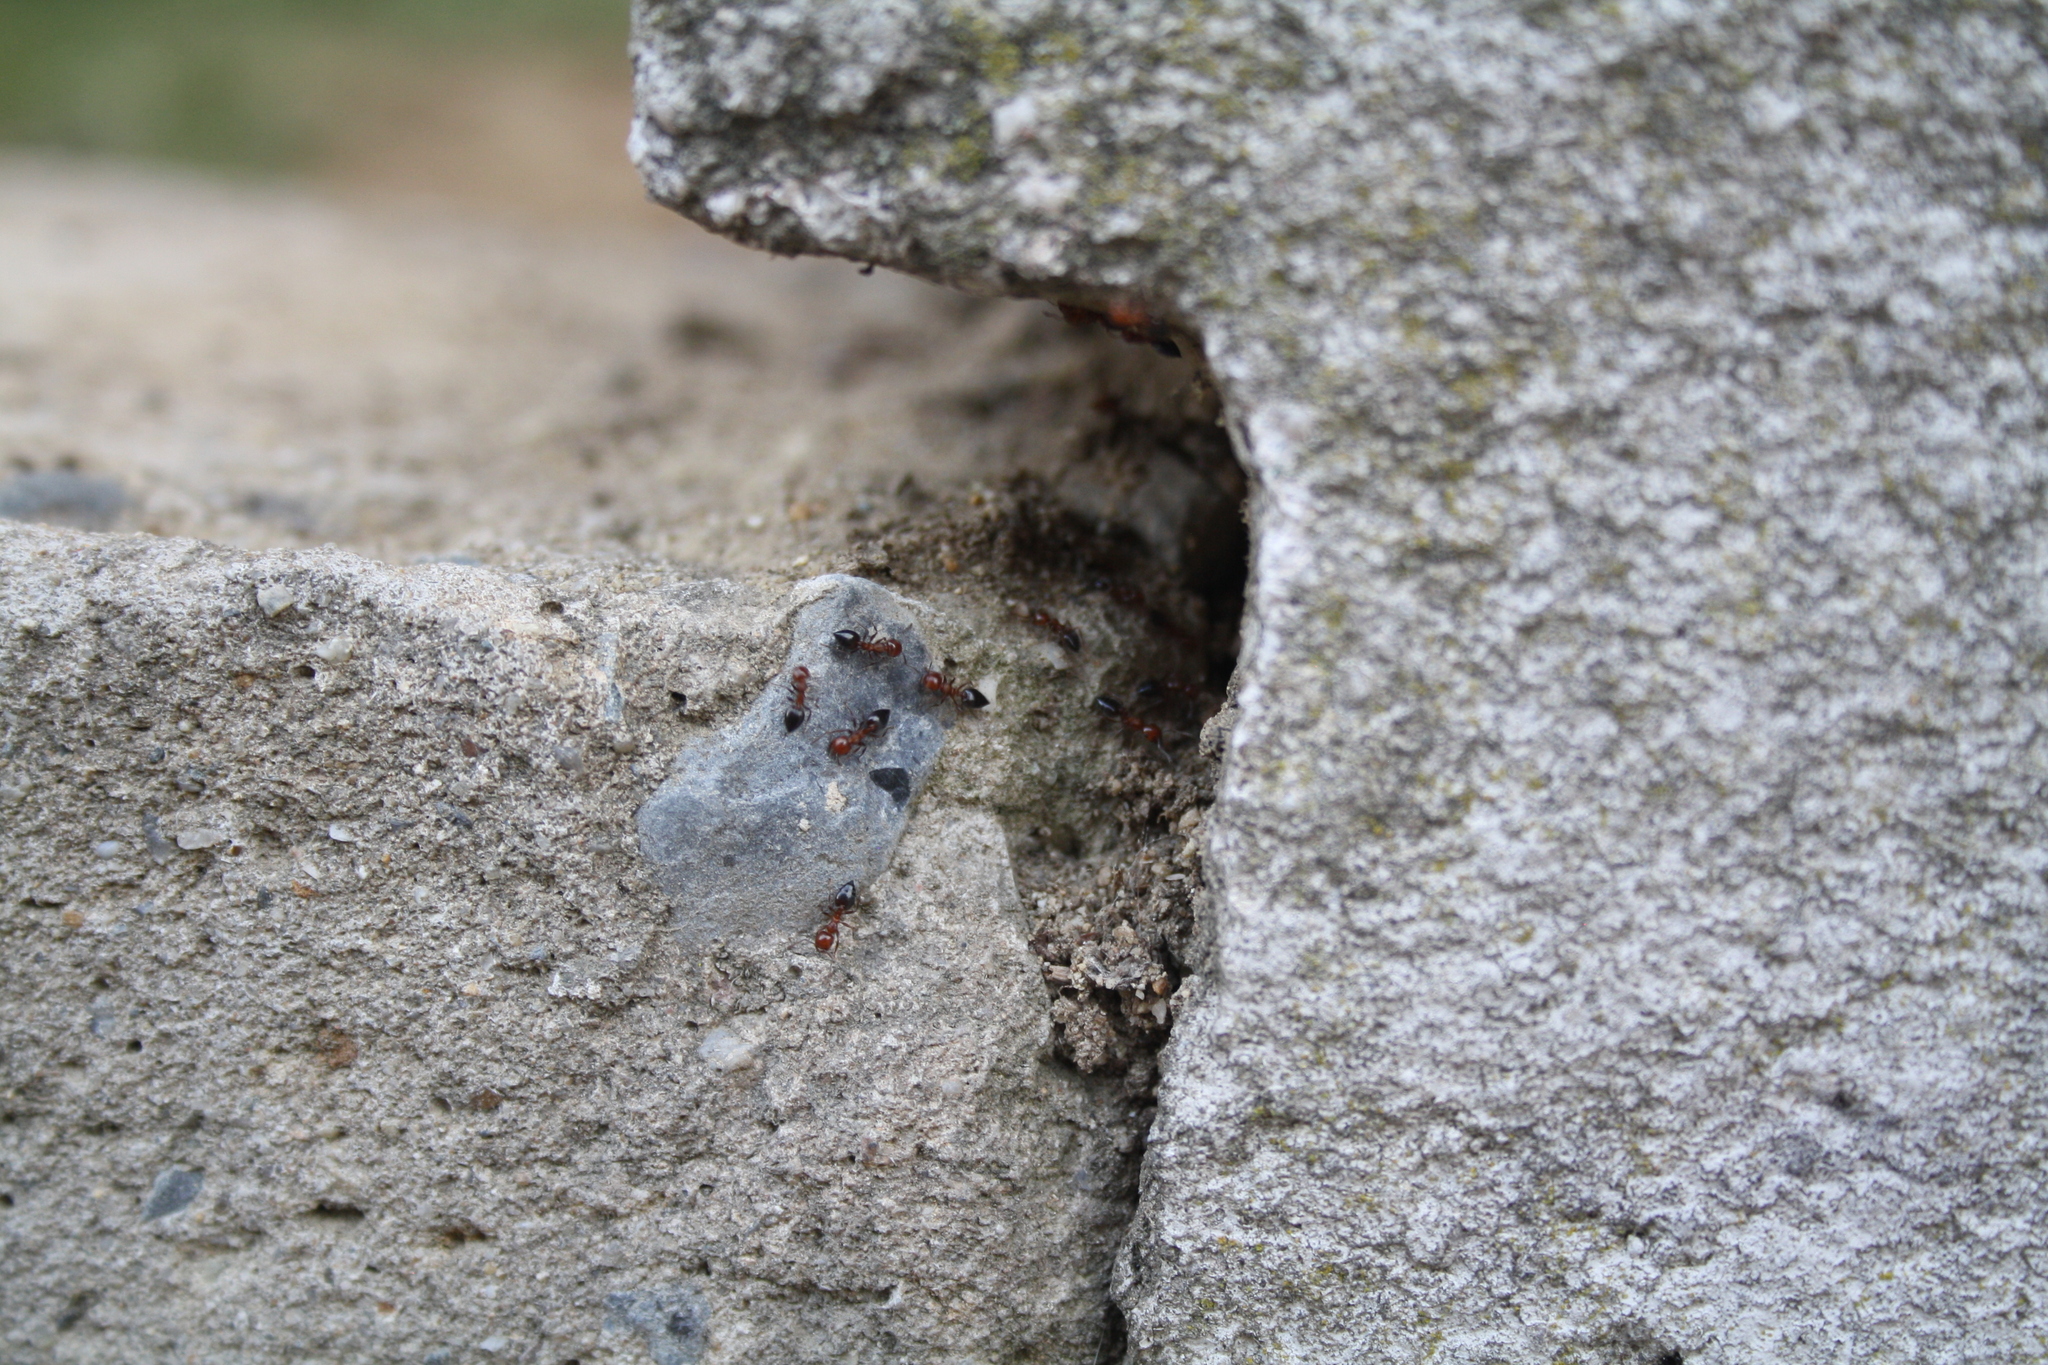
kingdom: Animalia
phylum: Arthropoda
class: Insecta
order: Hymenoptera
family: Formicidae
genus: Crematogaster
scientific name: Crematogaster schmidti
